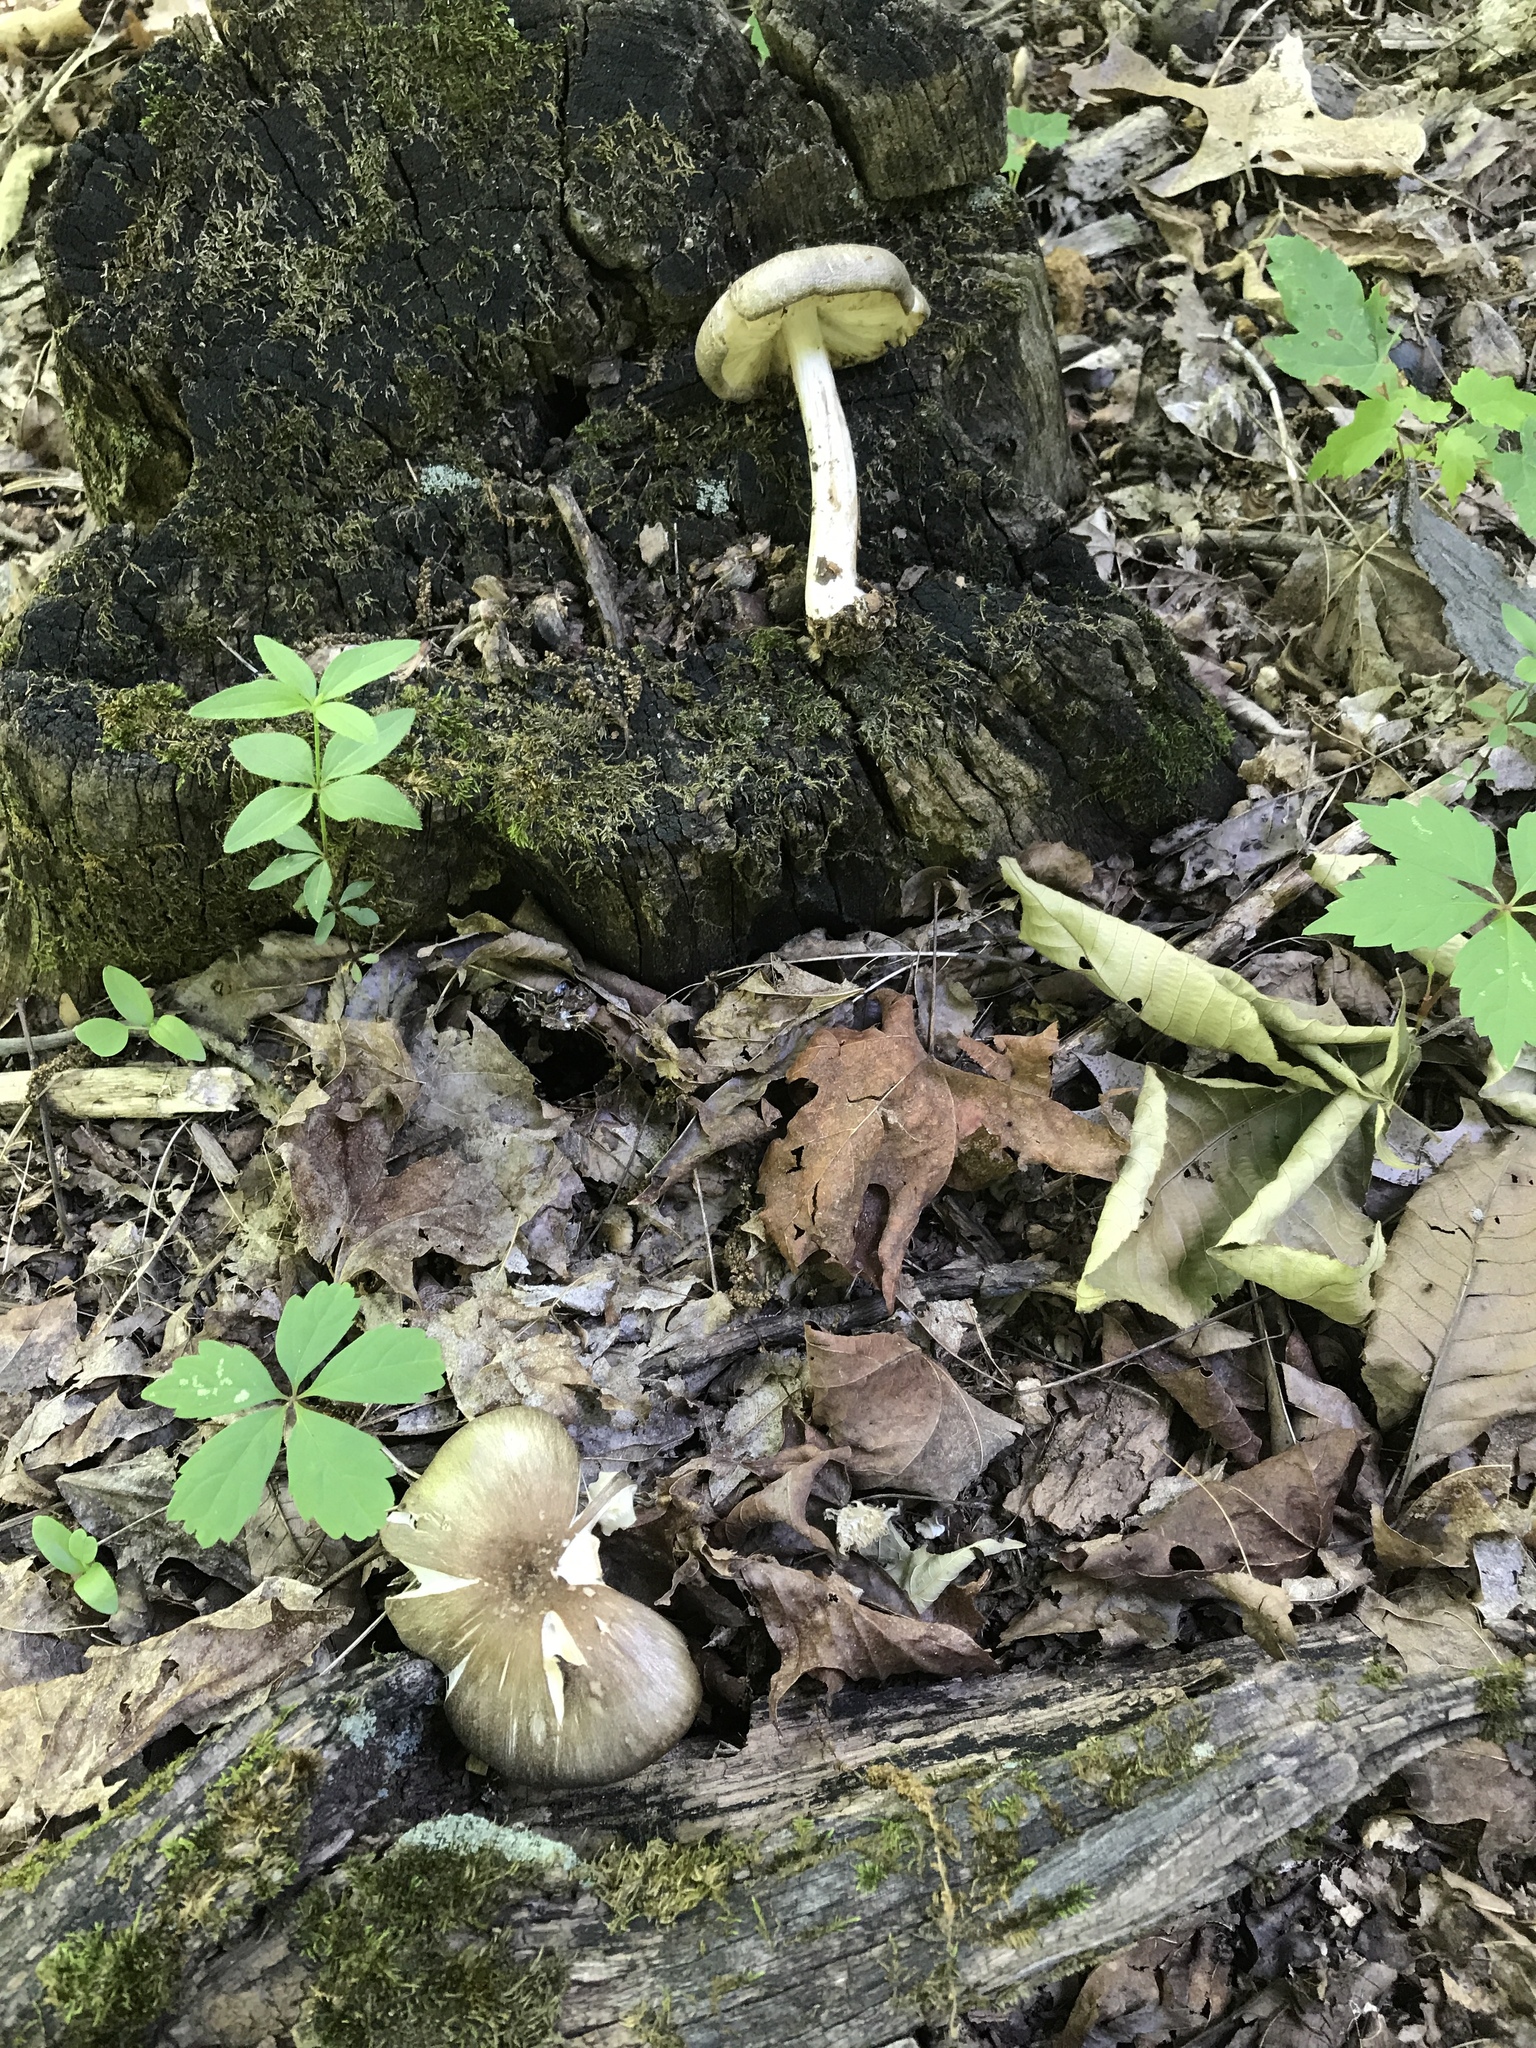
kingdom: Fungi
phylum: Basidiomycota
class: Agaricomycetes
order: Agaricales
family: Tricholomataceae
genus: Megacollybia
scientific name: Megacollybia rodmanii
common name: Eastern american platterful mushroom
